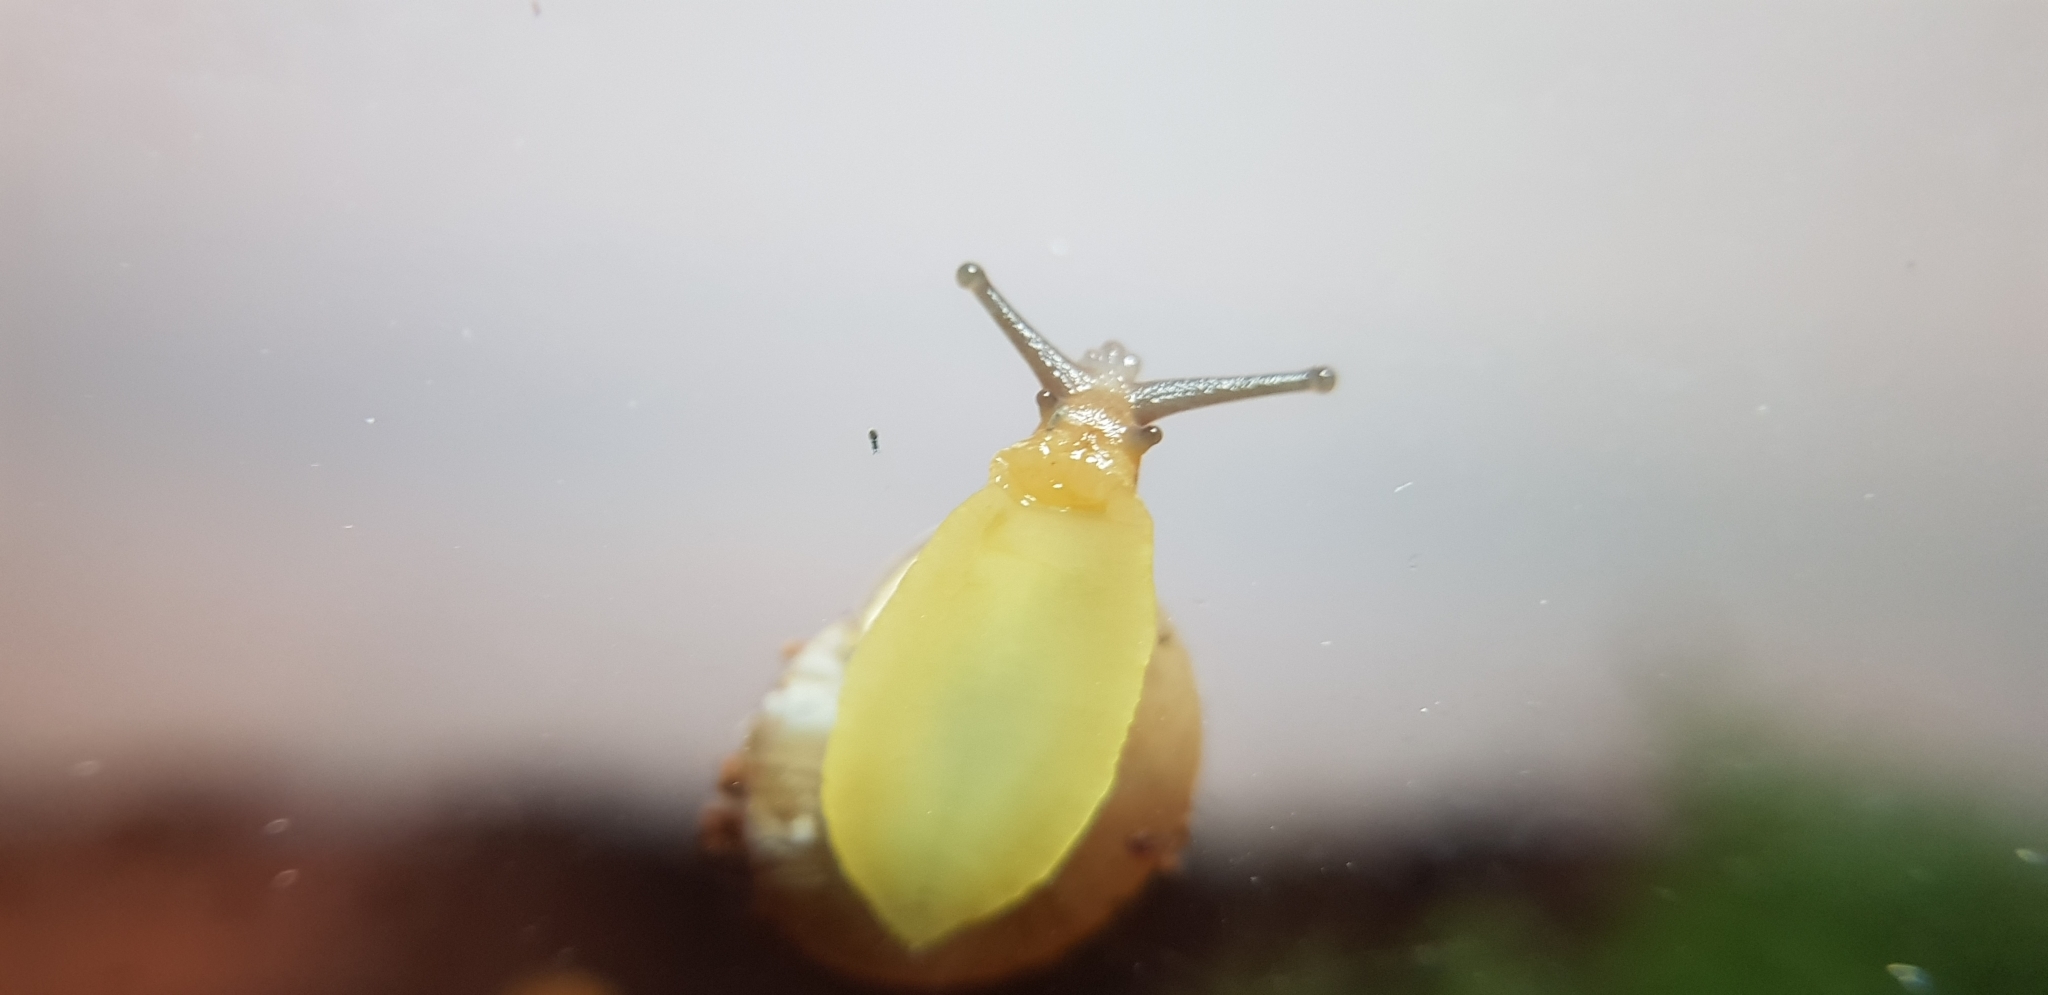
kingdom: Animalia
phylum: Mollusca
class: Gastropoda
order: Stylommatophora
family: Camaenidae
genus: Bradybaena
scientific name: Bradybaena similaris
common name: Asian trampsnail
